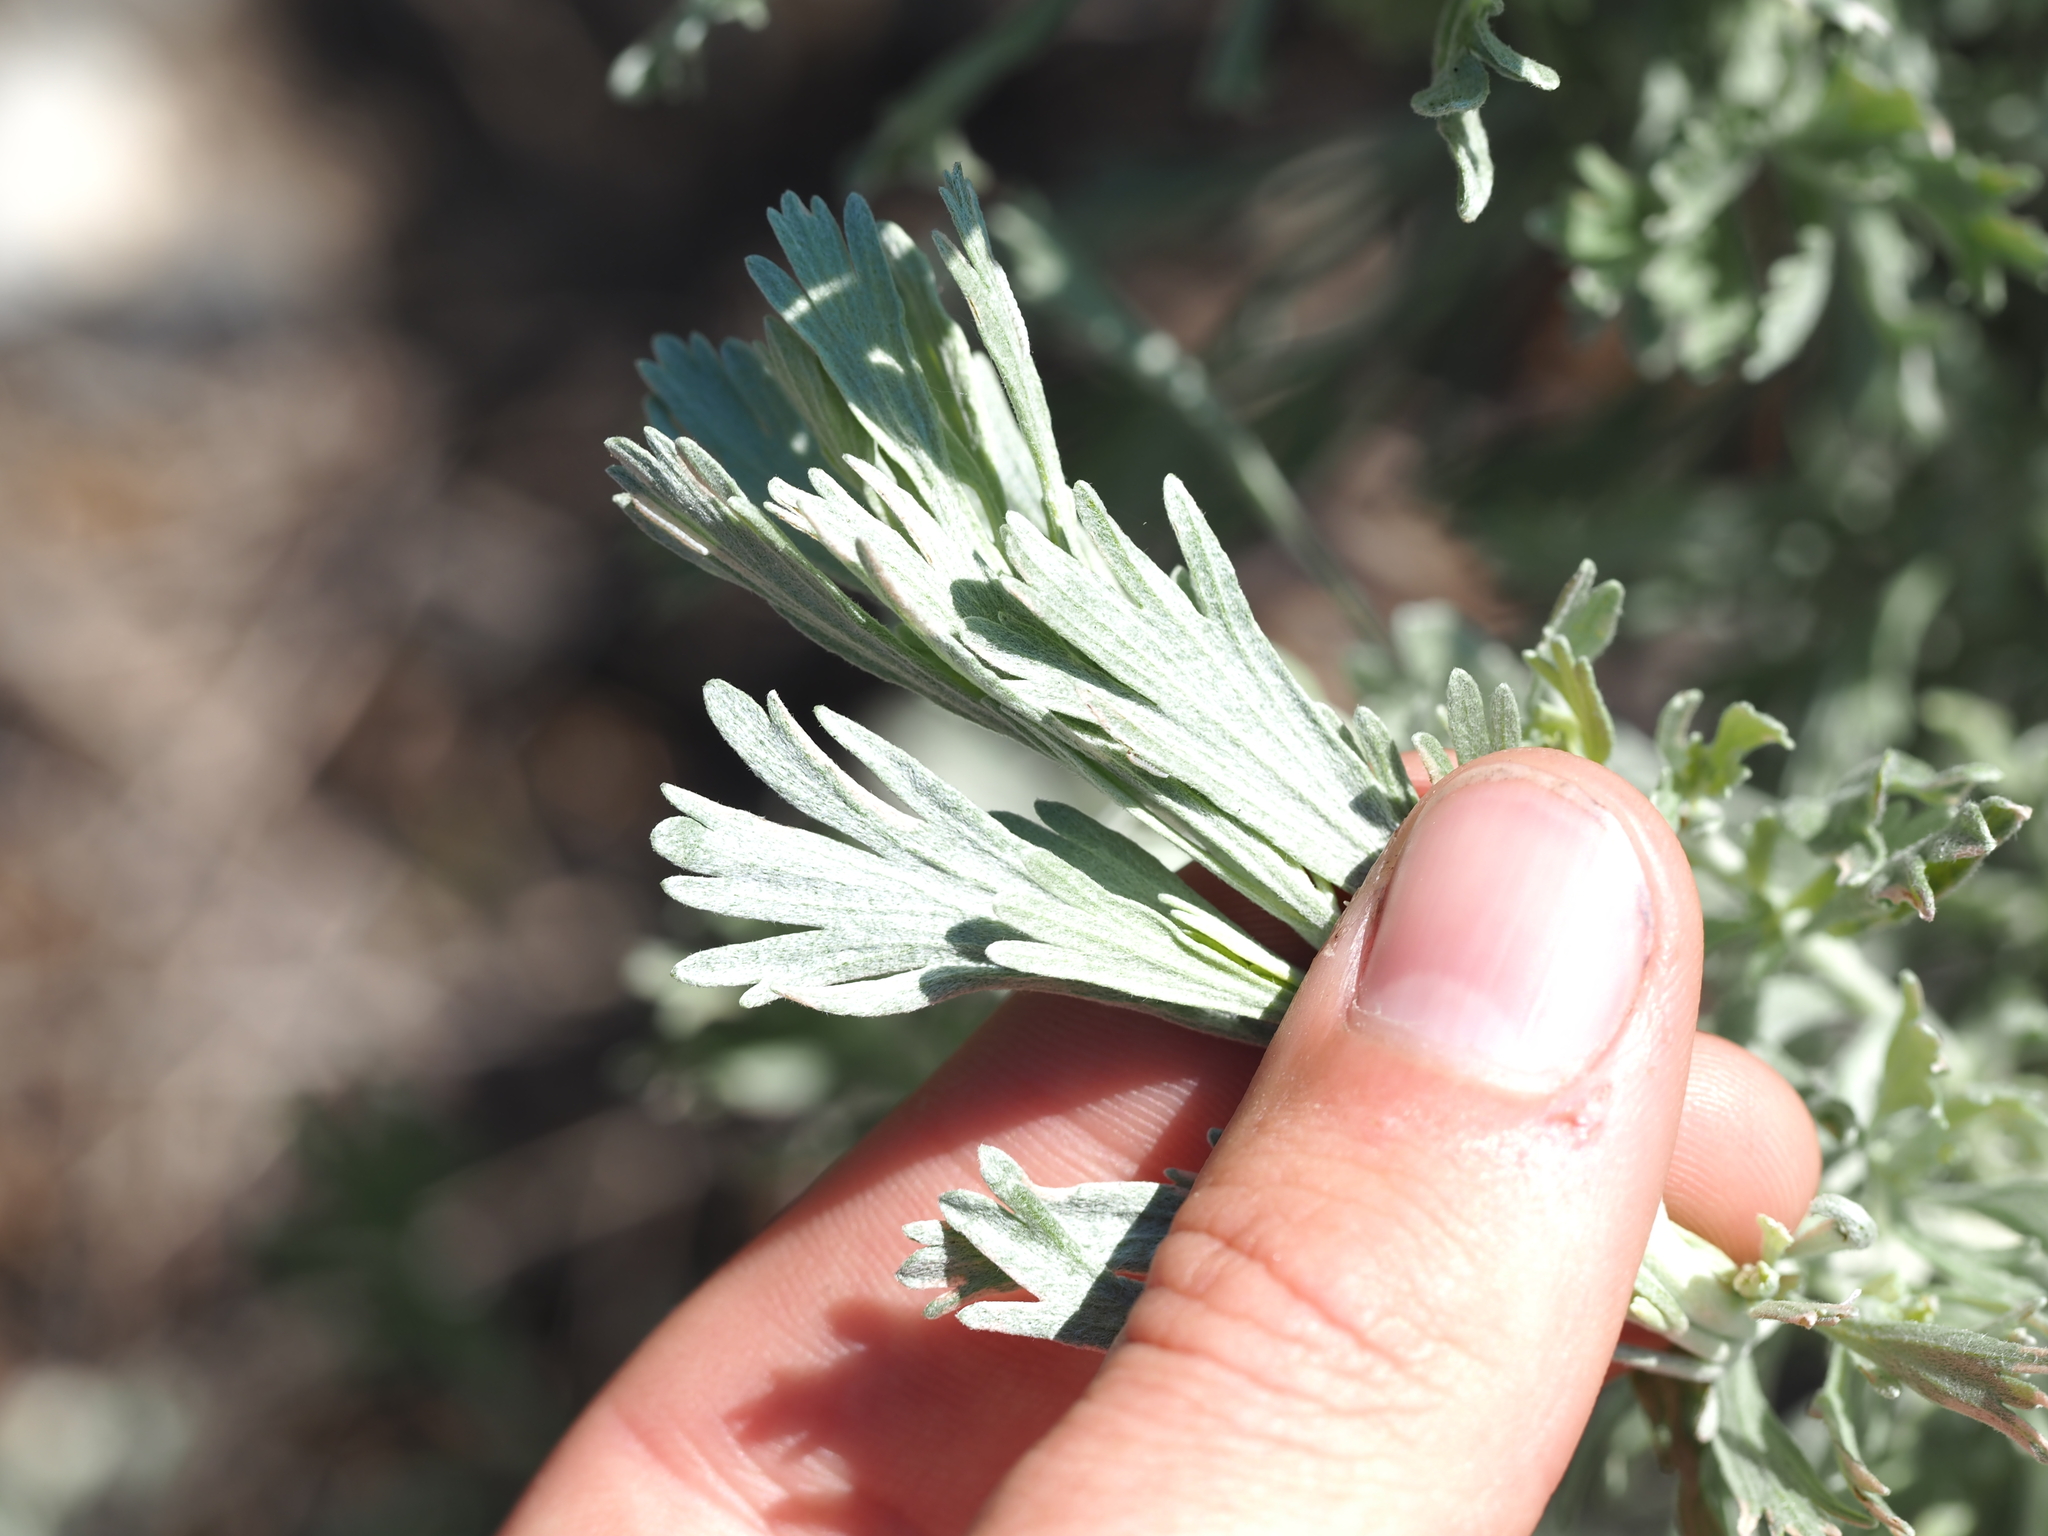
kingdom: Plantae
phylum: Tracheophyta
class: Magnoliopsida
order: Asterales
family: Asteraceae
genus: Artemisia
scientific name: Artemisia tridentata
